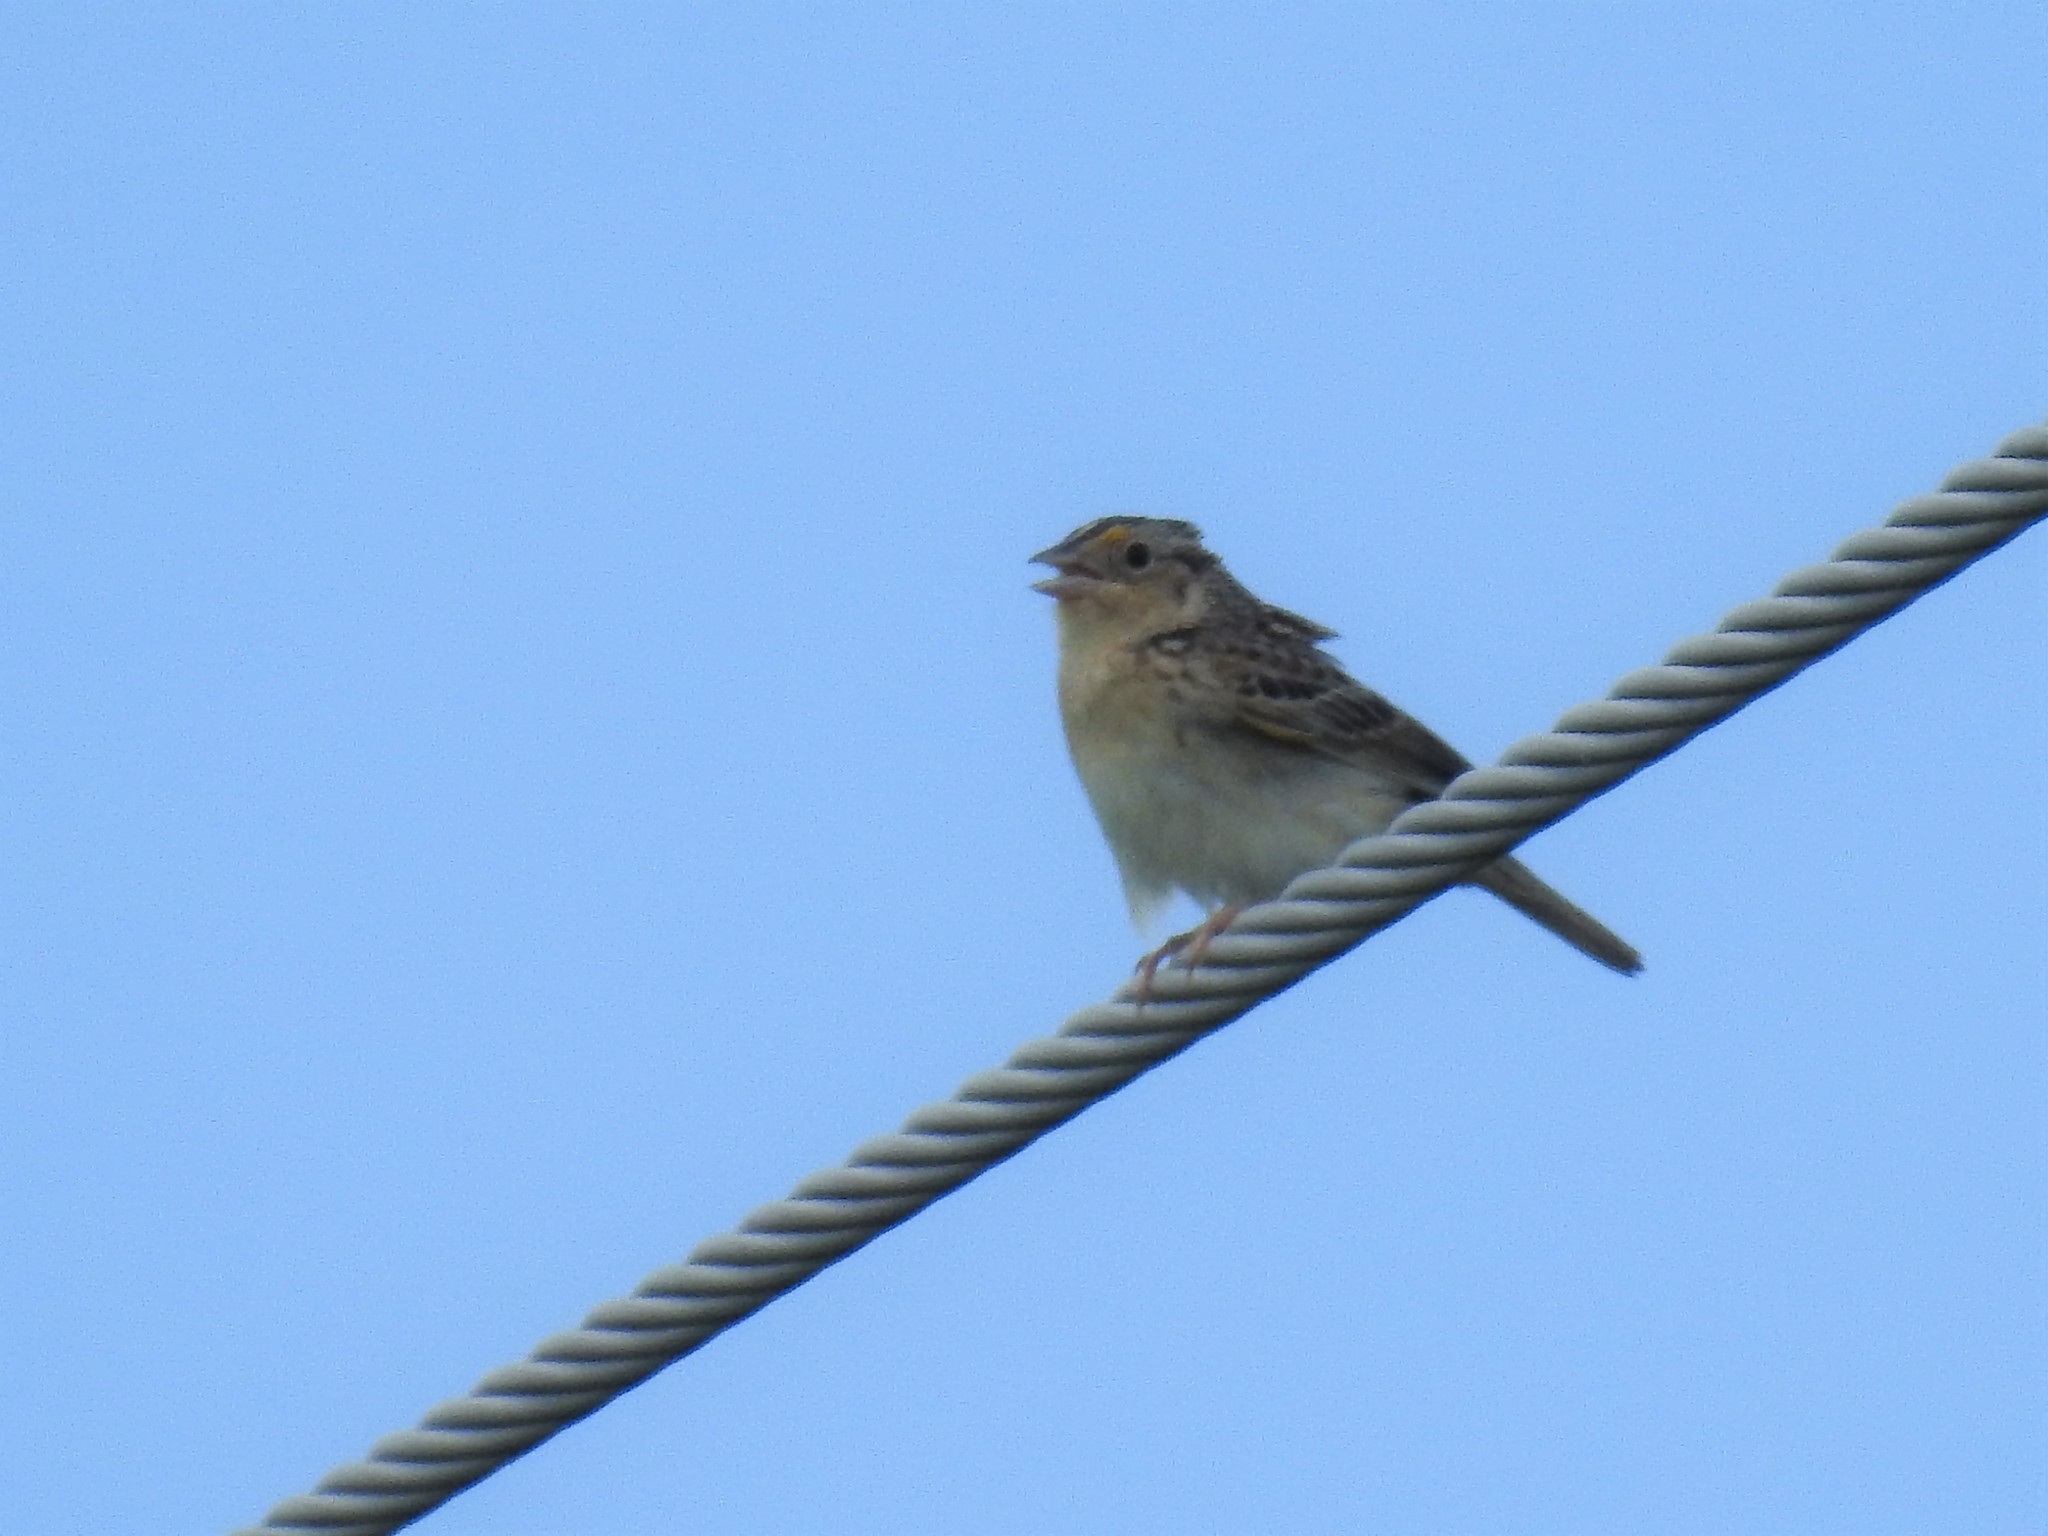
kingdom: Animalia
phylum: Chordata
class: Aves
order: Passeriformes
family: Passerellidae
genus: Ammodramus
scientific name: Ammodramus savannarum
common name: Grasshopper sparrow
